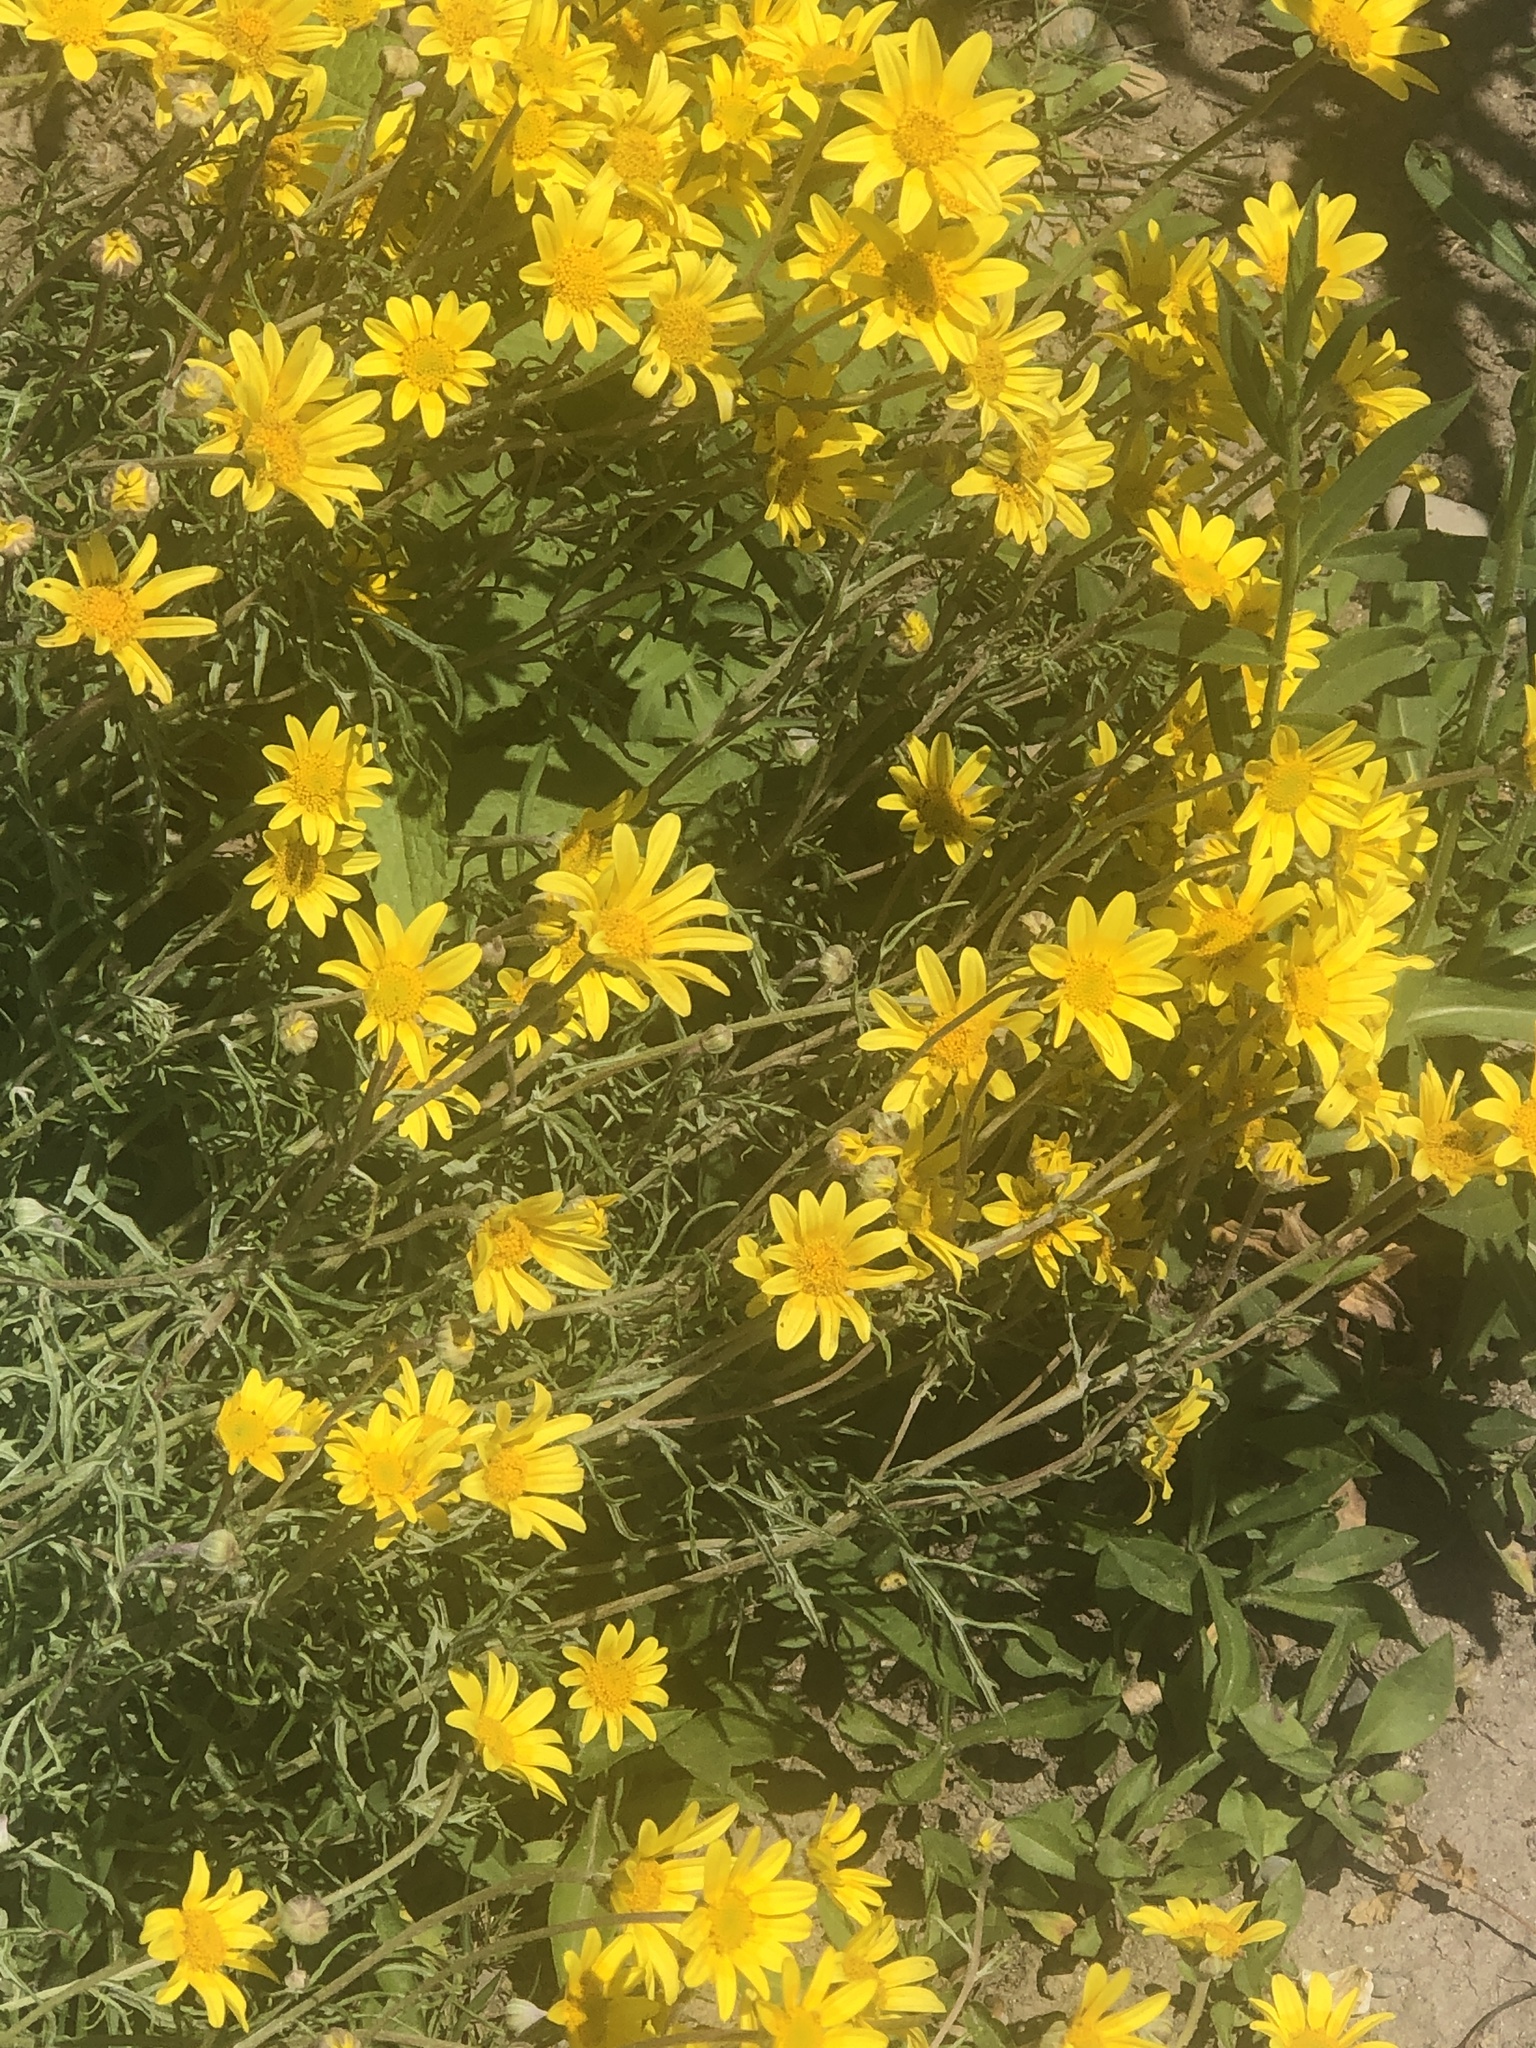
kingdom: Plantae
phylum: Tracheophyta
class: Magnoliopsida
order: Asterales
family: Asteraceae
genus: Eriophyllum
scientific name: Eriophyllum lanatum
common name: Common woolly-sunflower
